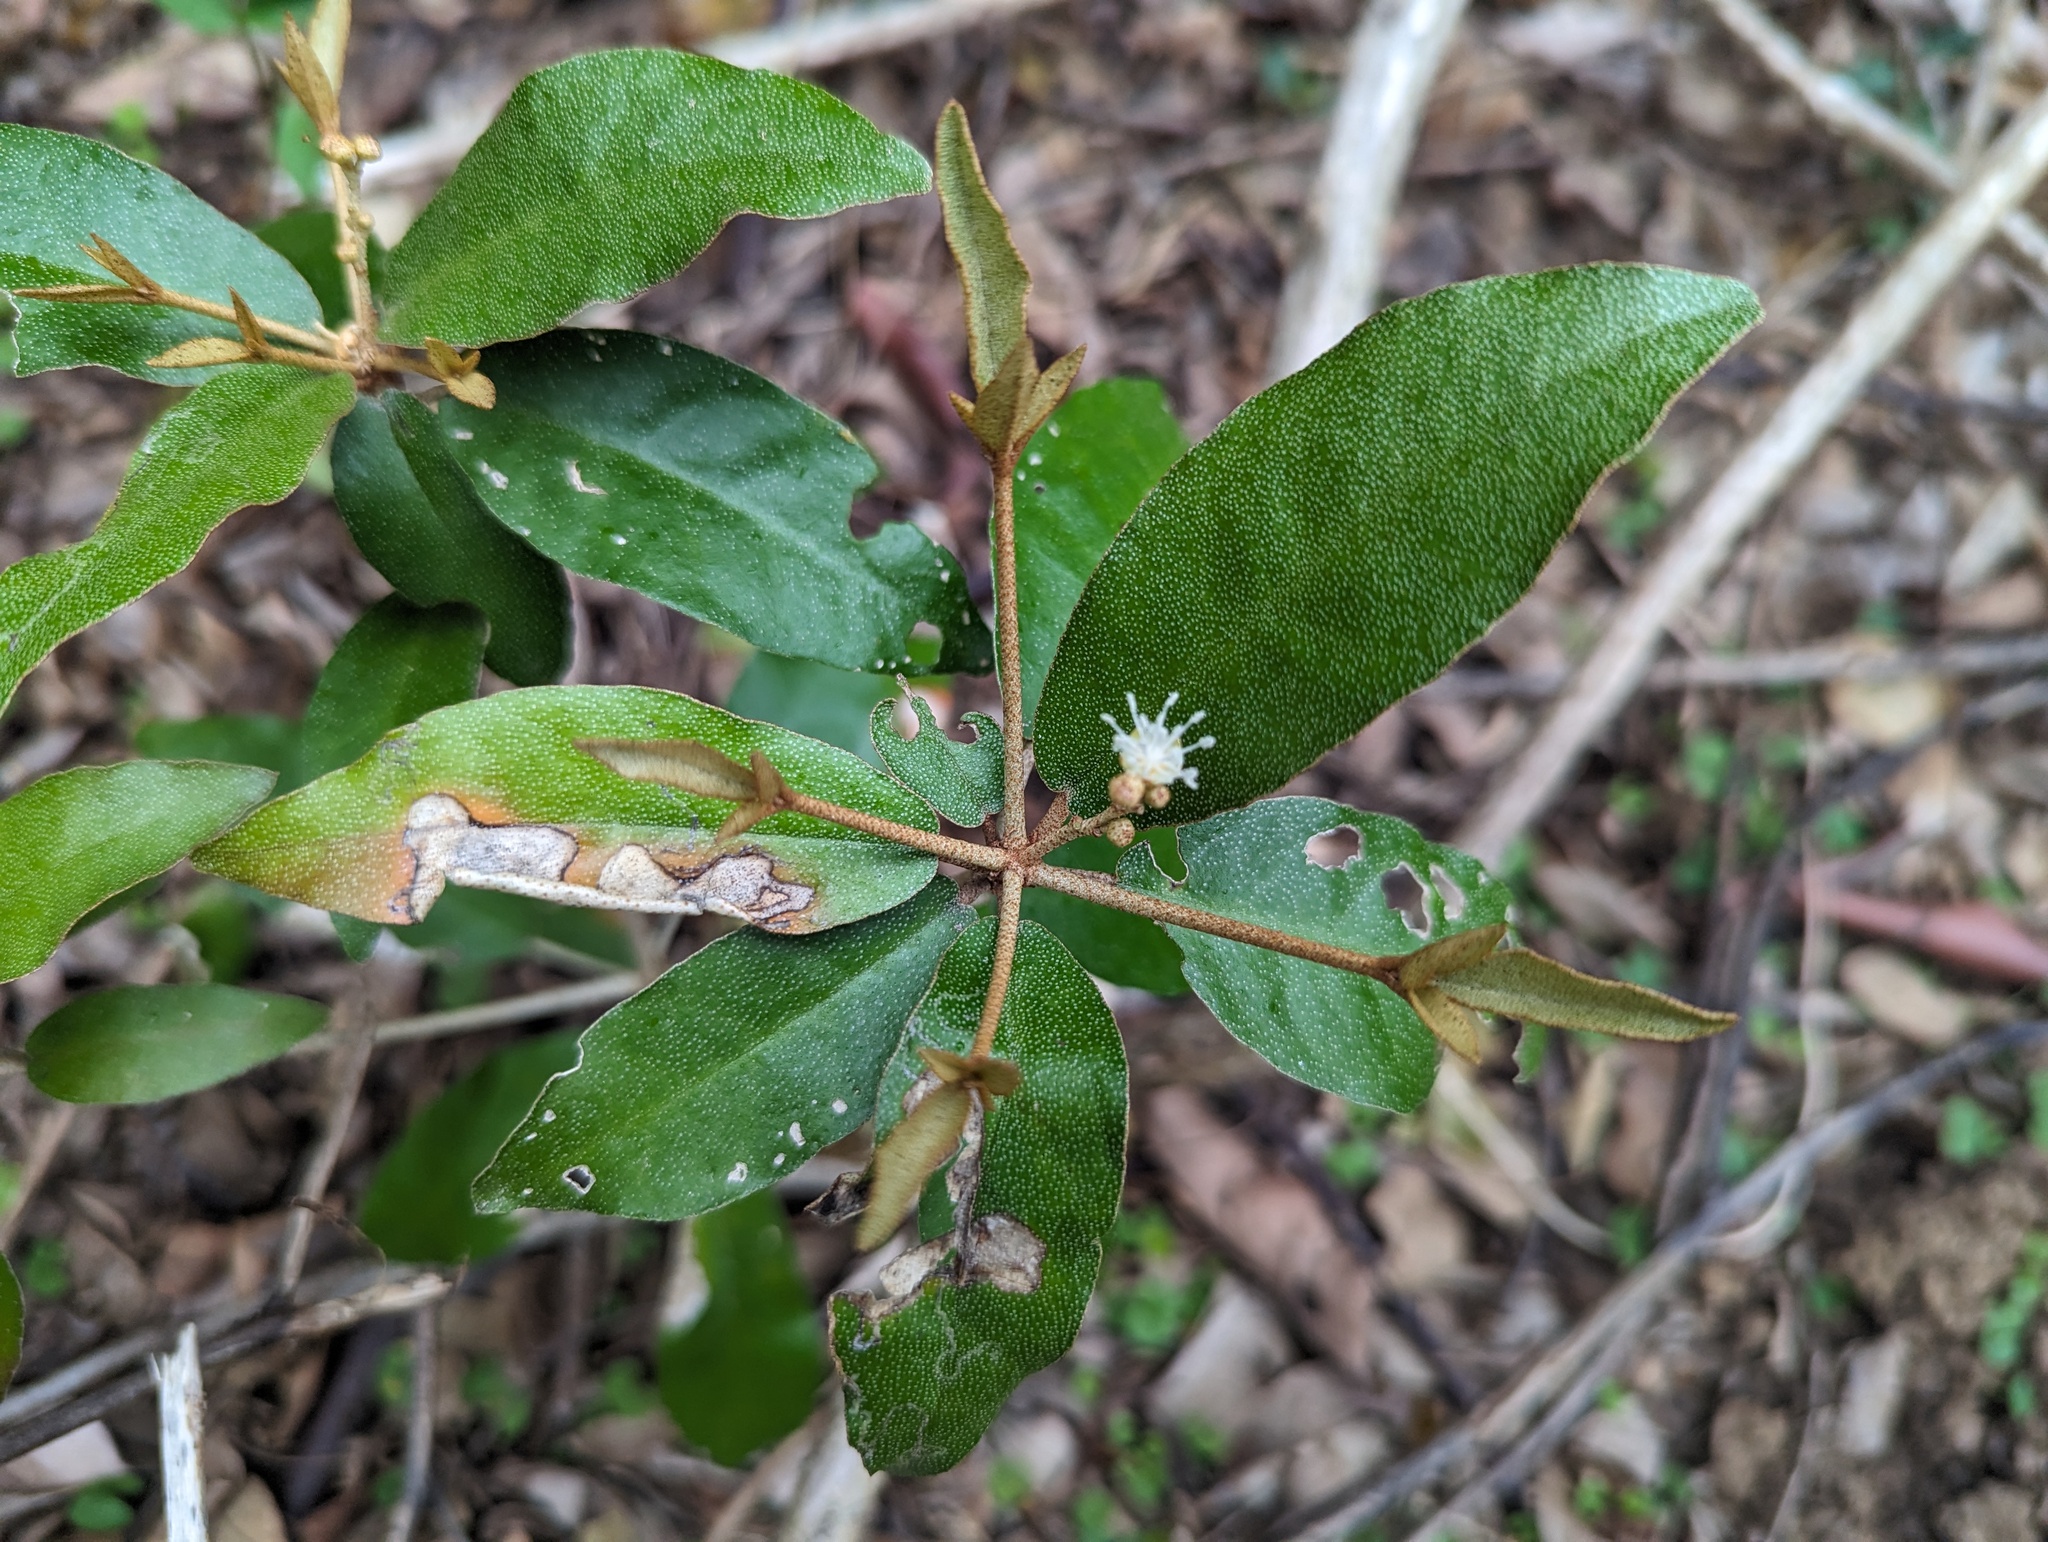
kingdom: Plantae
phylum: Tracheophyta
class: Magnoliopsida
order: Malpighiales
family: Euphorbiaceae
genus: Croton
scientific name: Croton cascarilloides
